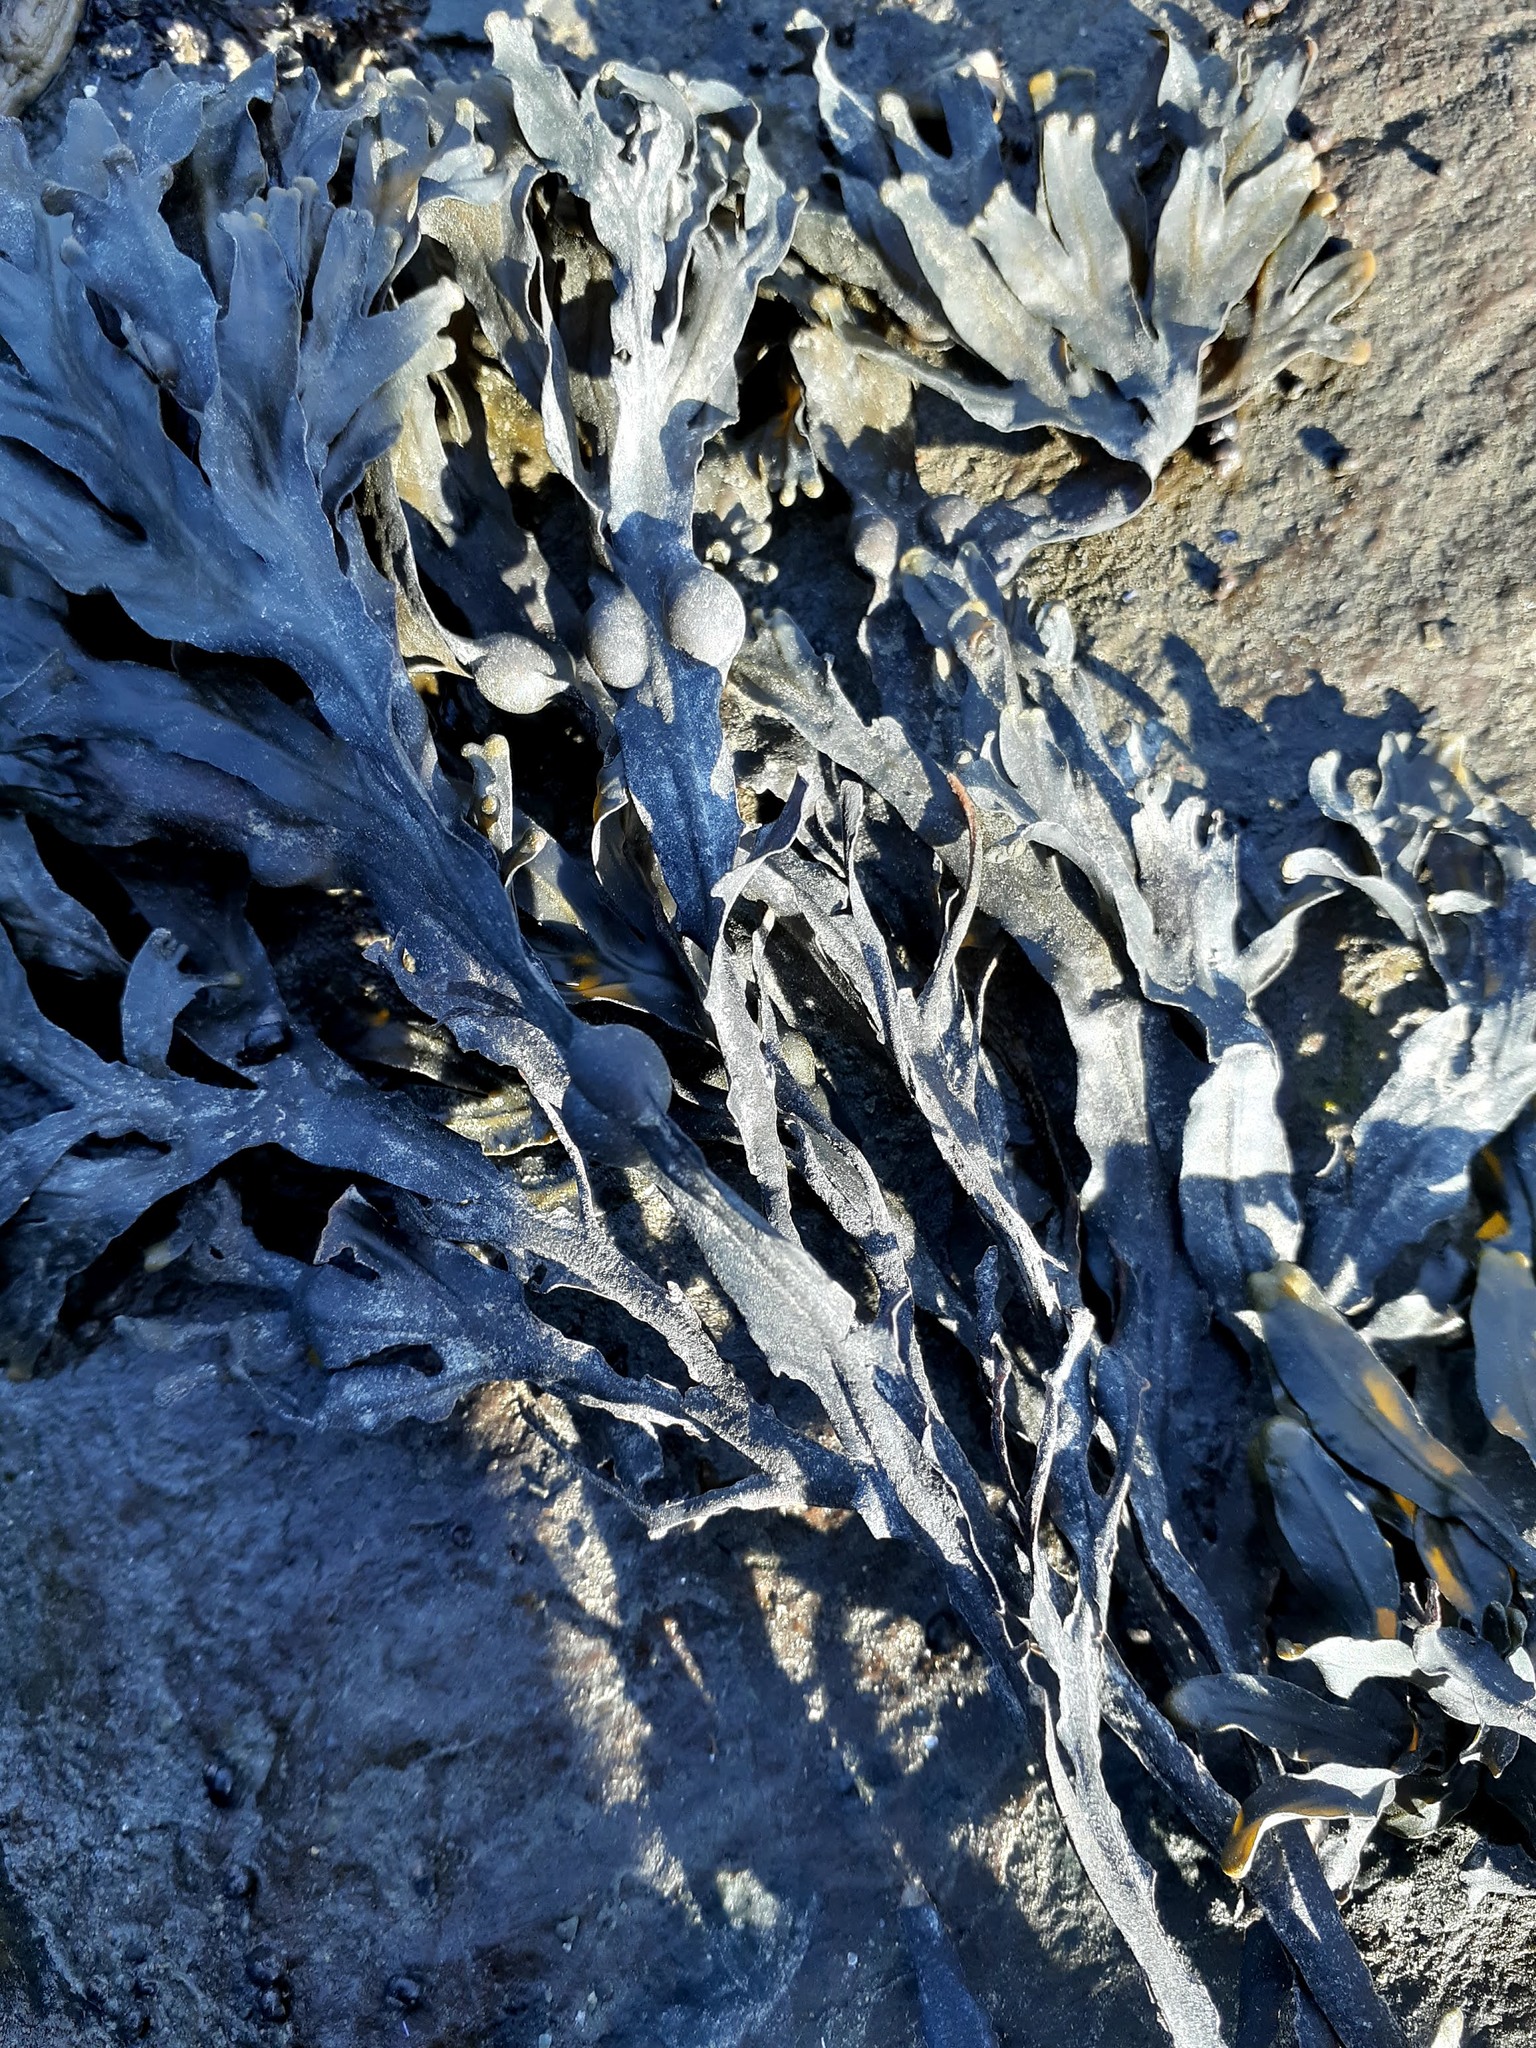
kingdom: Chromista
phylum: Ochrophyta
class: Phaeophyceae
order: Fucales
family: Fucaceae
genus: Fucus
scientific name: Fucus vesiculosus
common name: Bladder wrack
